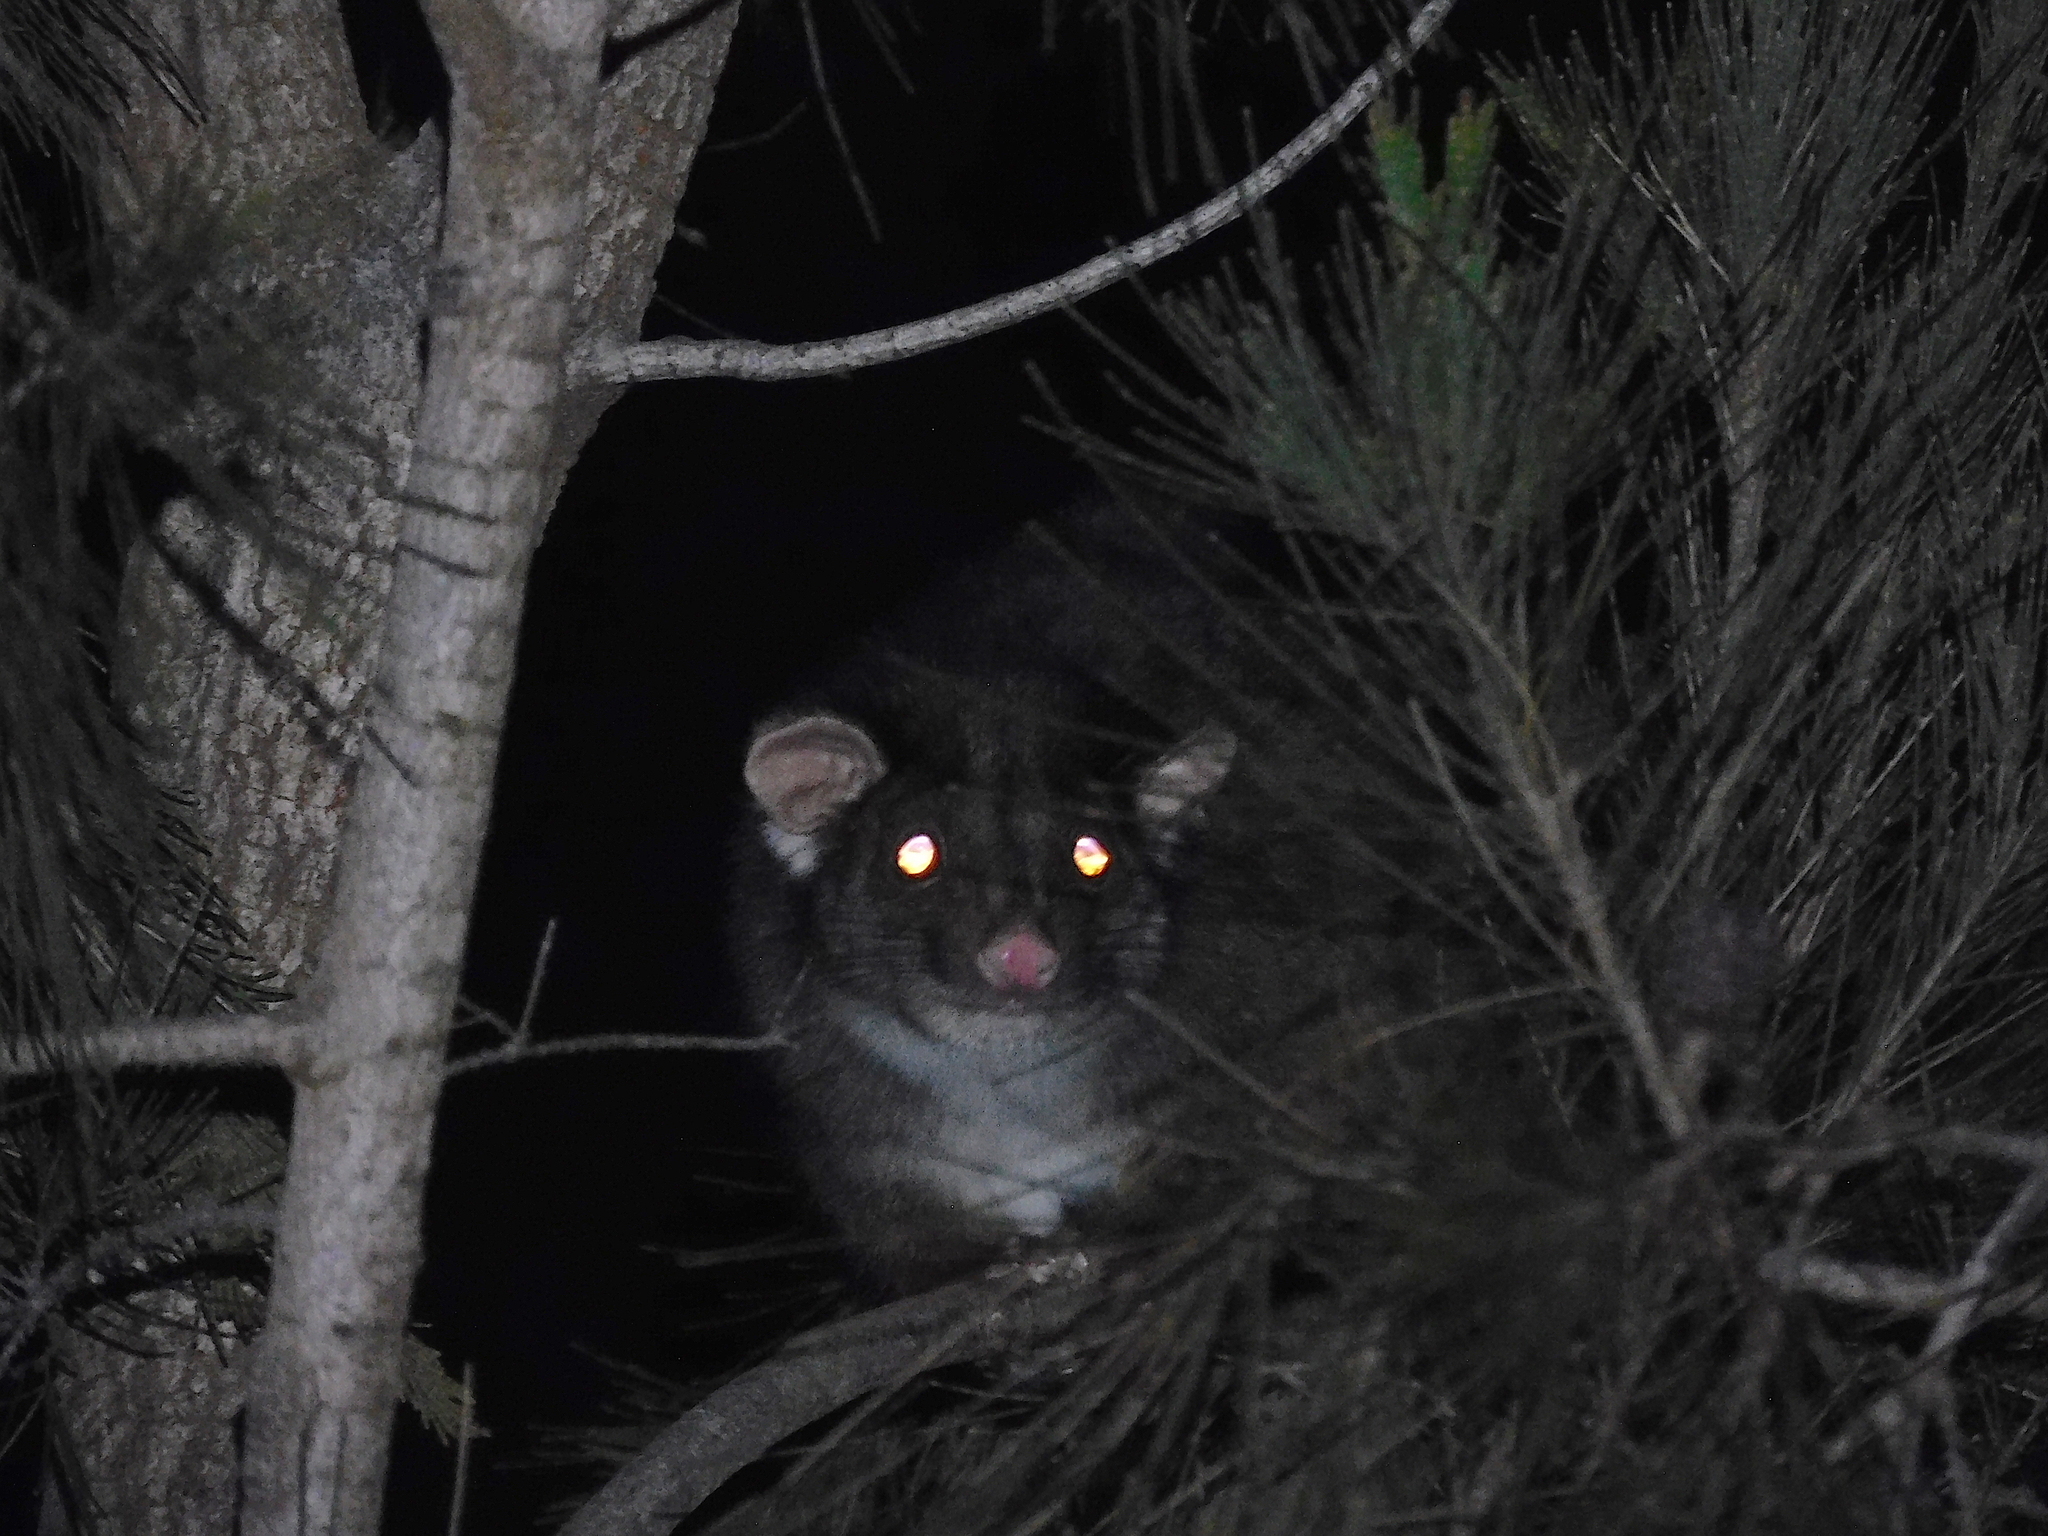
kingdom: Animalia
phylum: Chordata
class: Mammalia
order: Diprotodontia
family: Pseudocheiridae
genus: Pseudocheirus
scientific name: Pseudocheirus peregrinus
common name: Common ringtail possum
